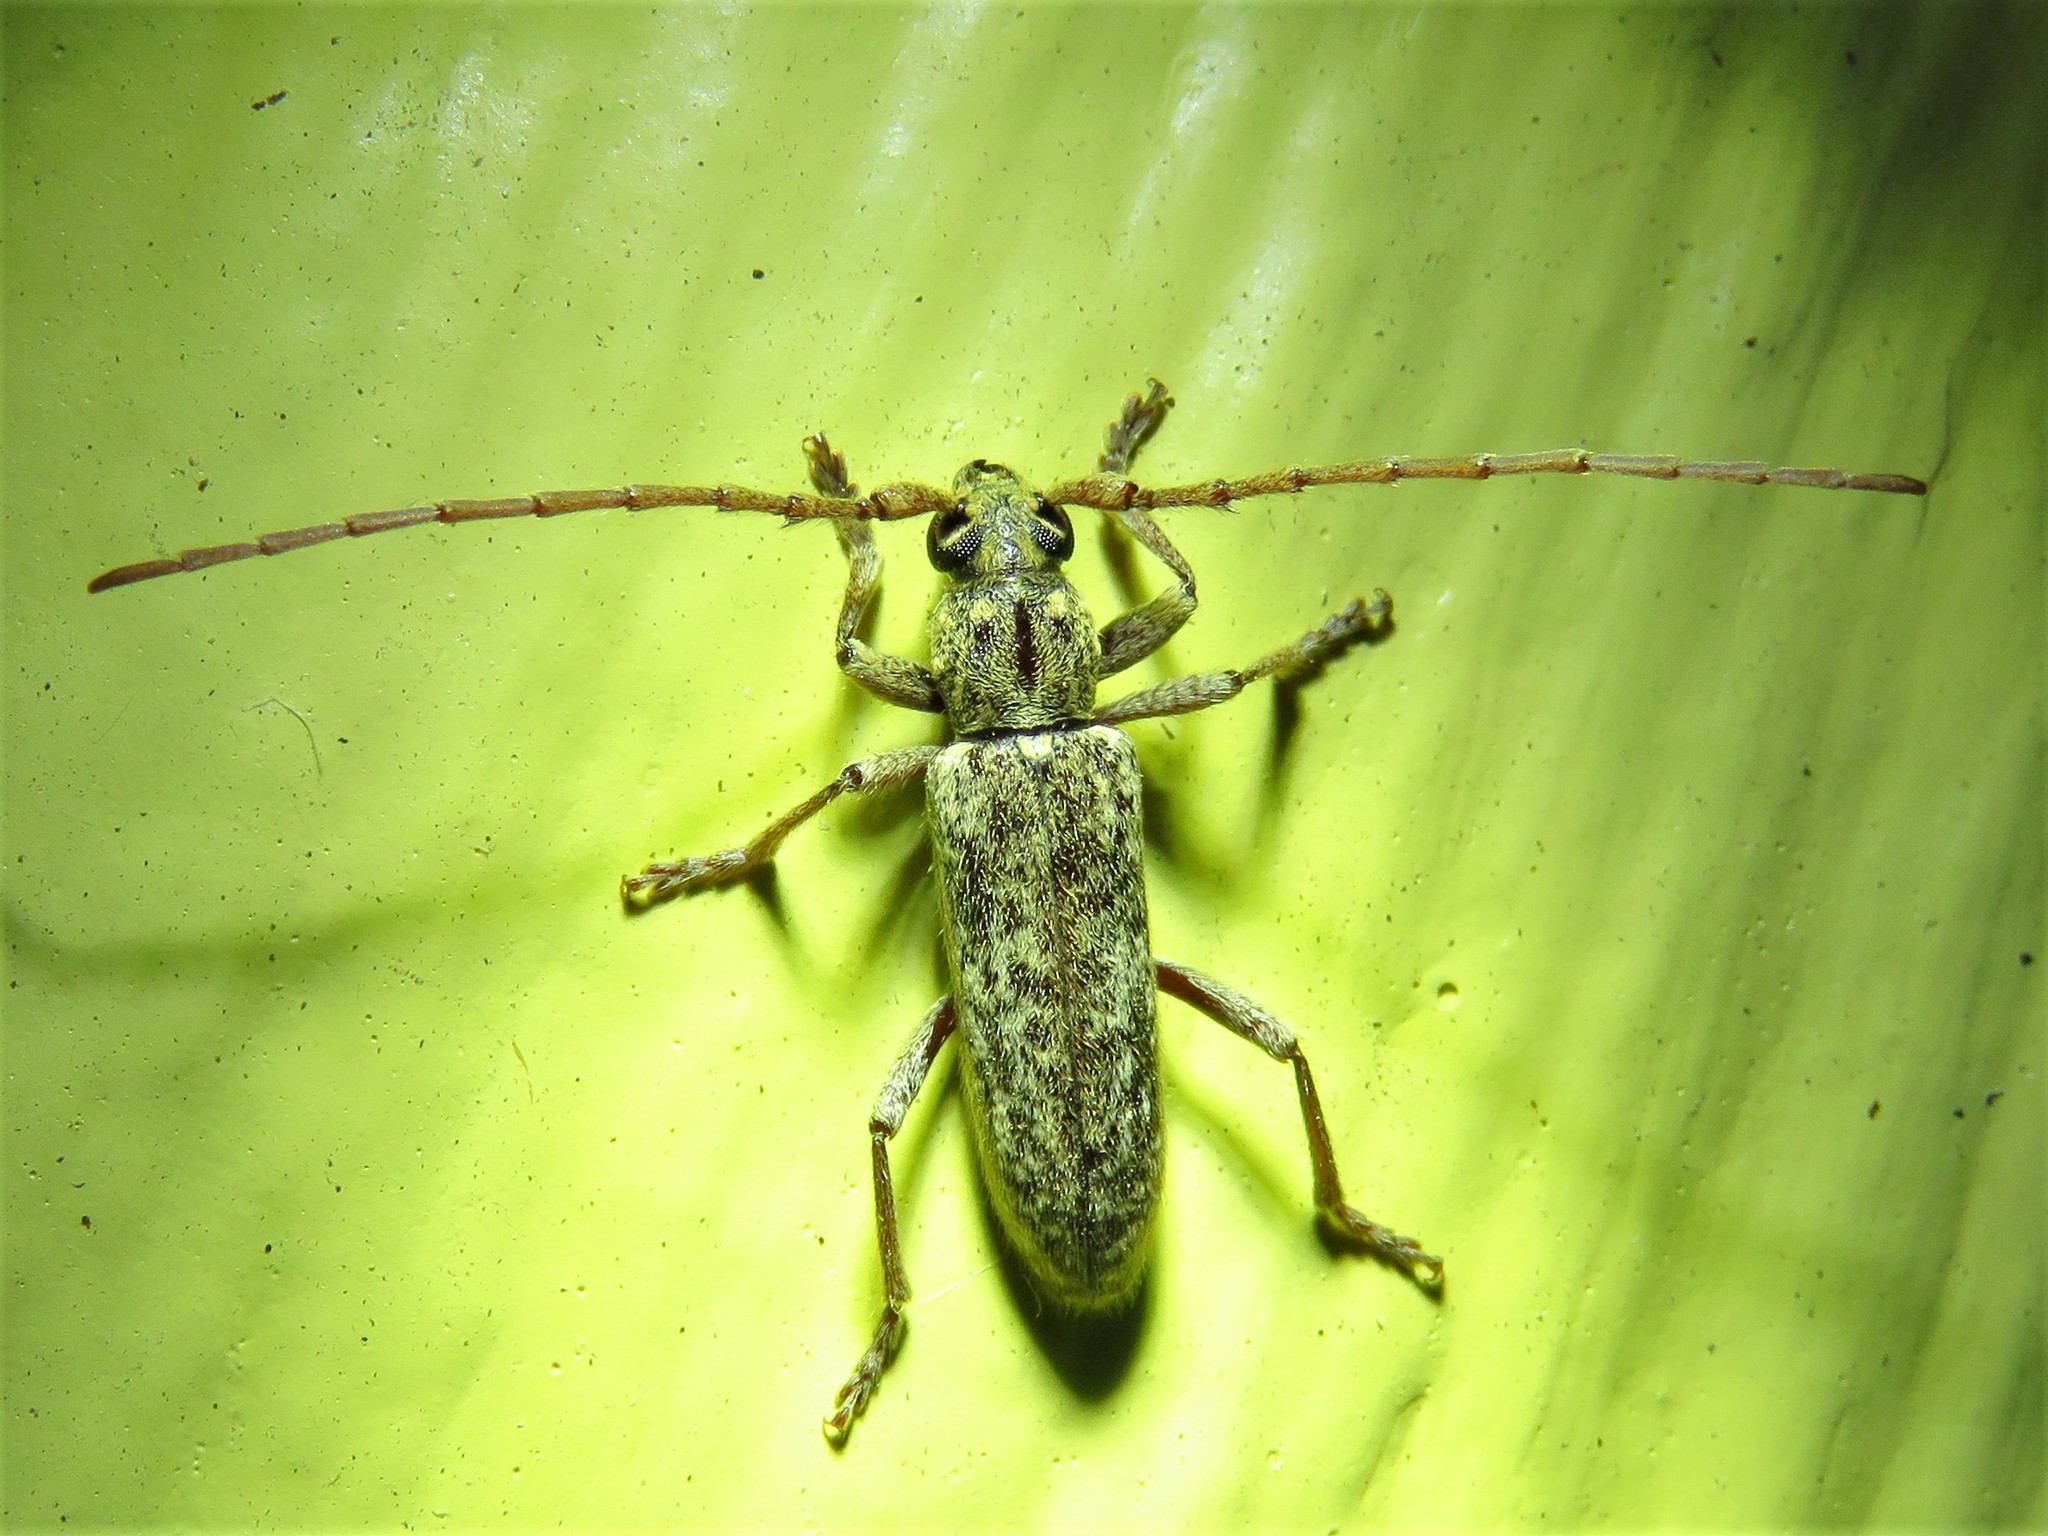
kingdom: Animalia
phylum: Arthropoda
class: Insecta
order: Coleoptera
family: Cerambycidae
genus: Anelaphus
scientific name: Anelaphus debilis
